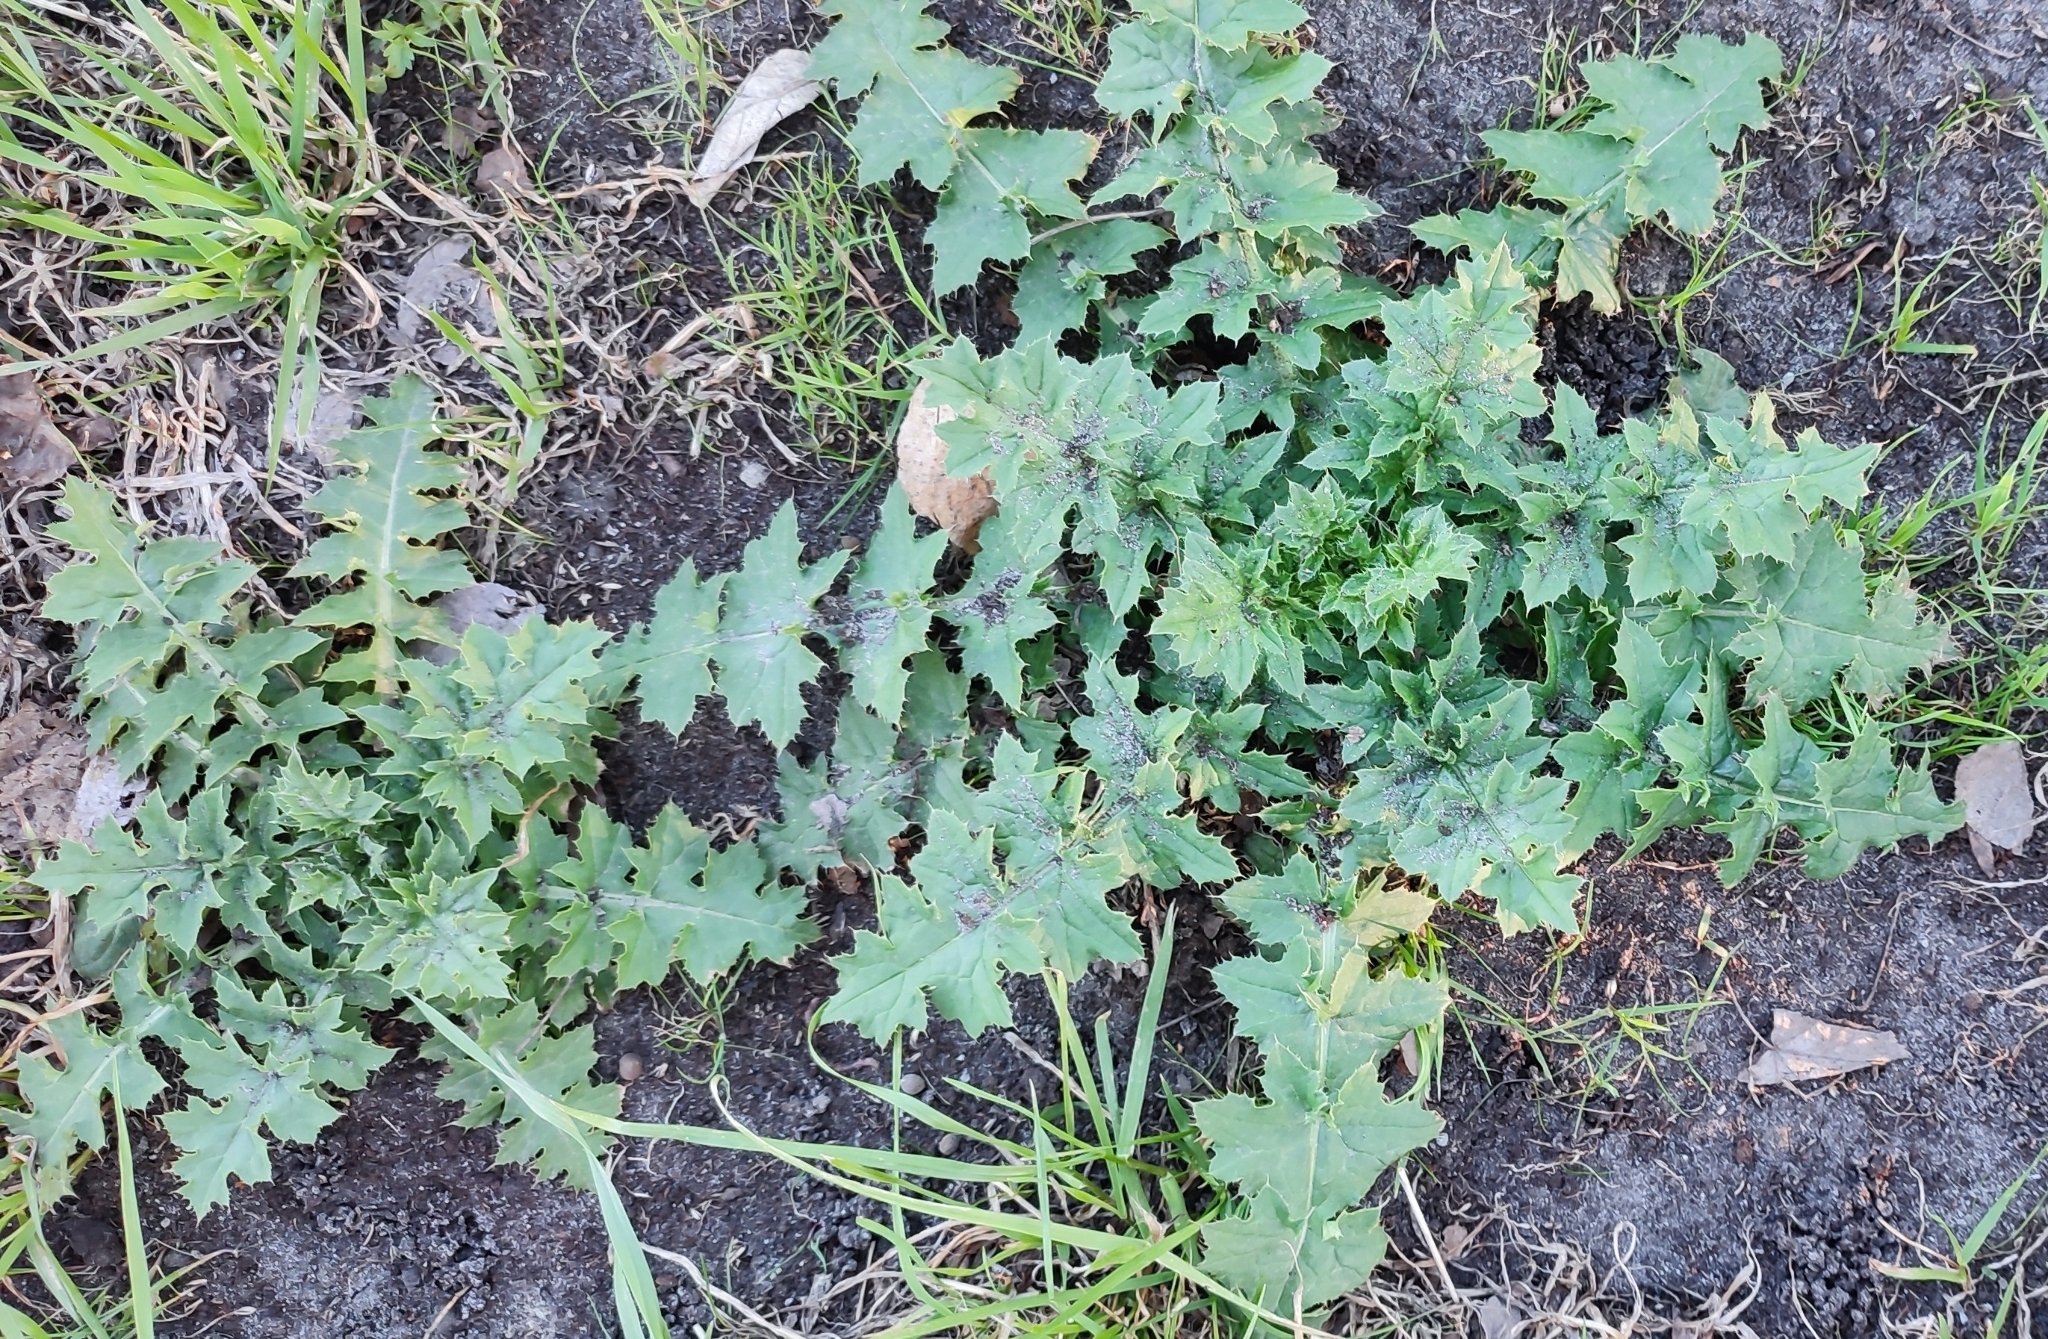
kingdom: Plantae
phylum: Tracheophyta
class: Magnoliopsida
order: Asterales
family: Asteraceae
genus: Carduus
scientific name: Carduus crispus
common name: Welted thistle
